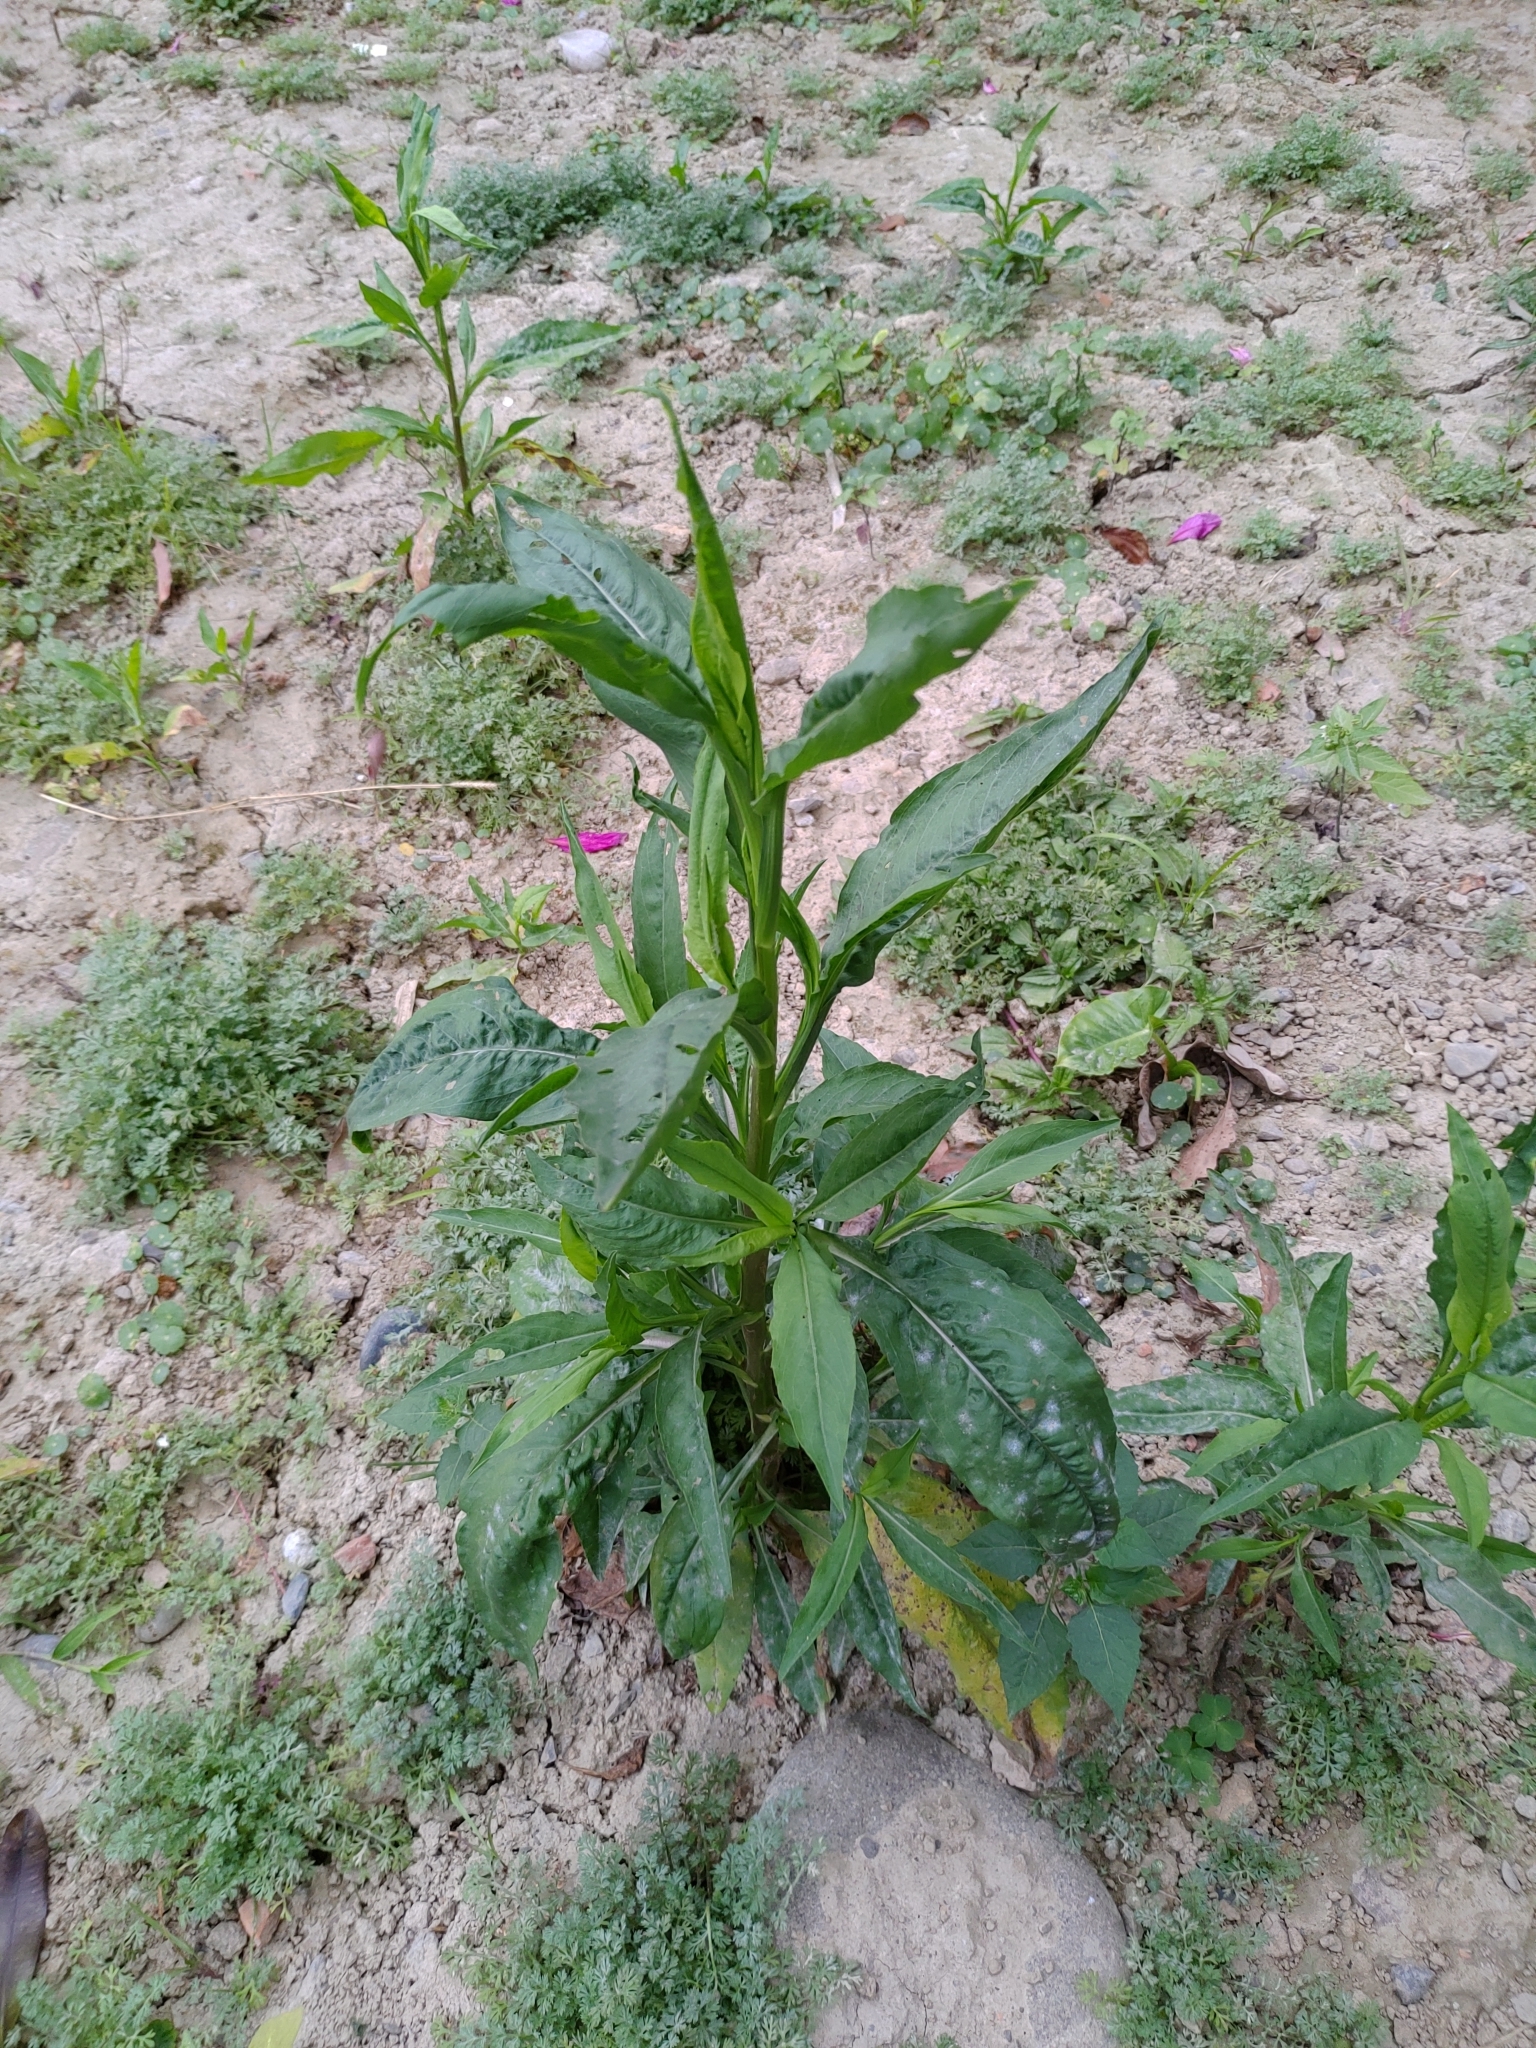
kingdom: Plantae
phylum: Tracheophyta
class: Magnoliopsida
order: Asterales
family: Asteraceae
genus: Symphyotrichum
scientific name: Symphyotrichum subulatum
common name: Annual saltmarsh aster
